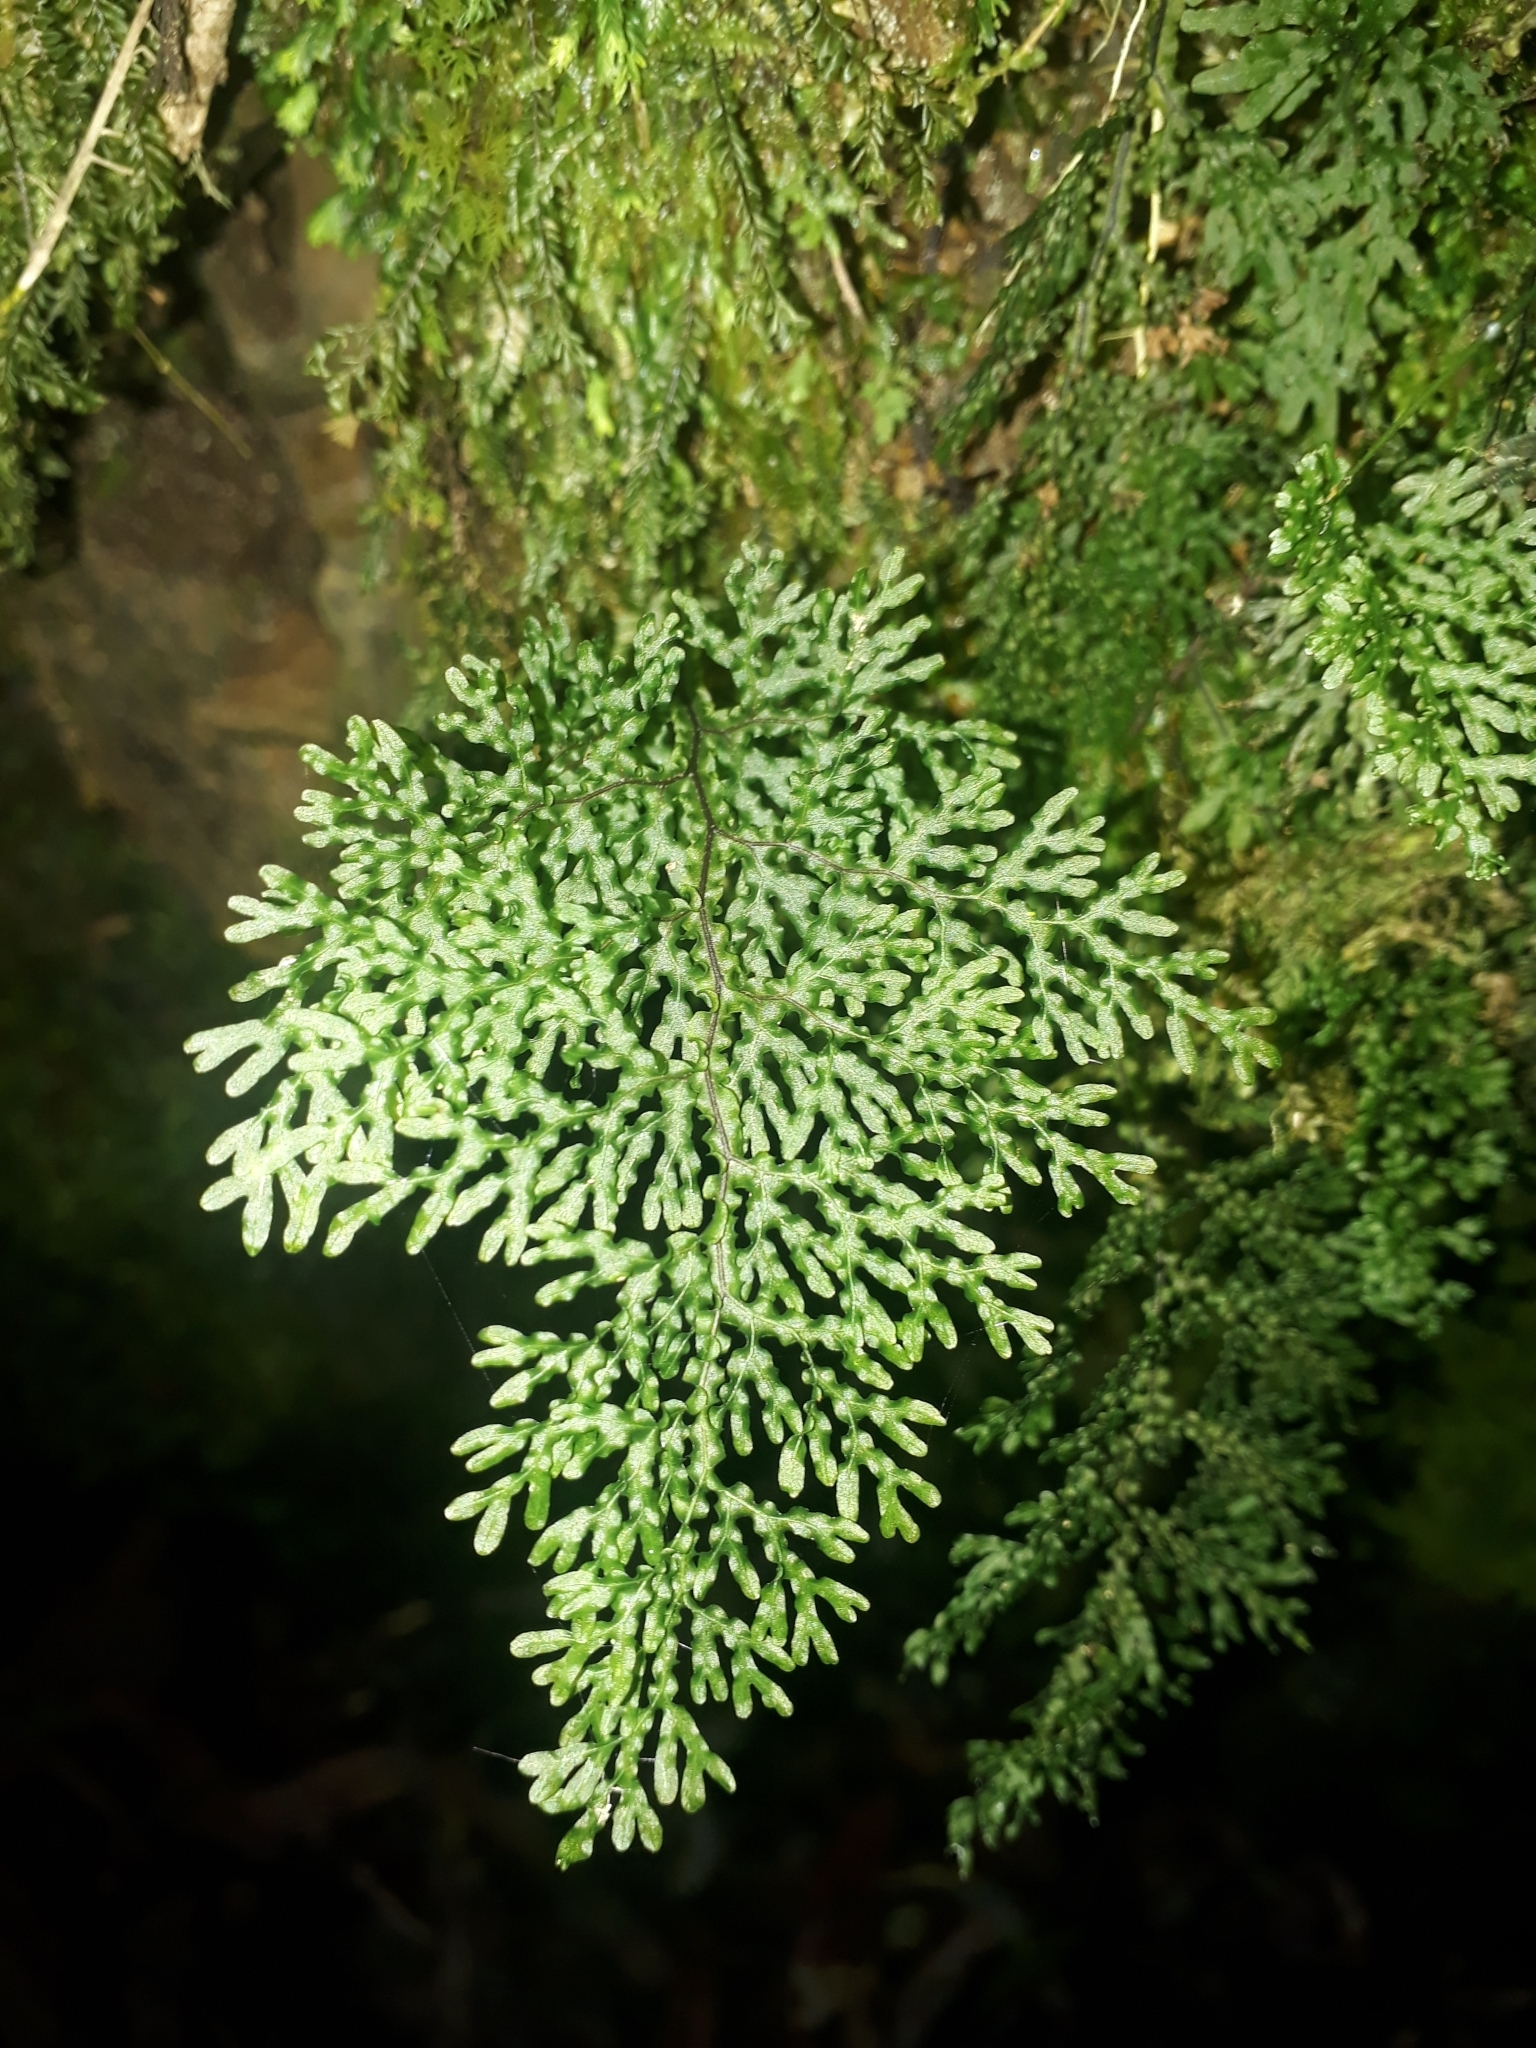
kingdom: Plantae
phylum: Tracheophyta
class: Polypodiopsida
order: Hymenophyllales
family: Hymenophyllaceae
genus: Hymenophyllum
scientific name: Hymenophyllum flexuosum
